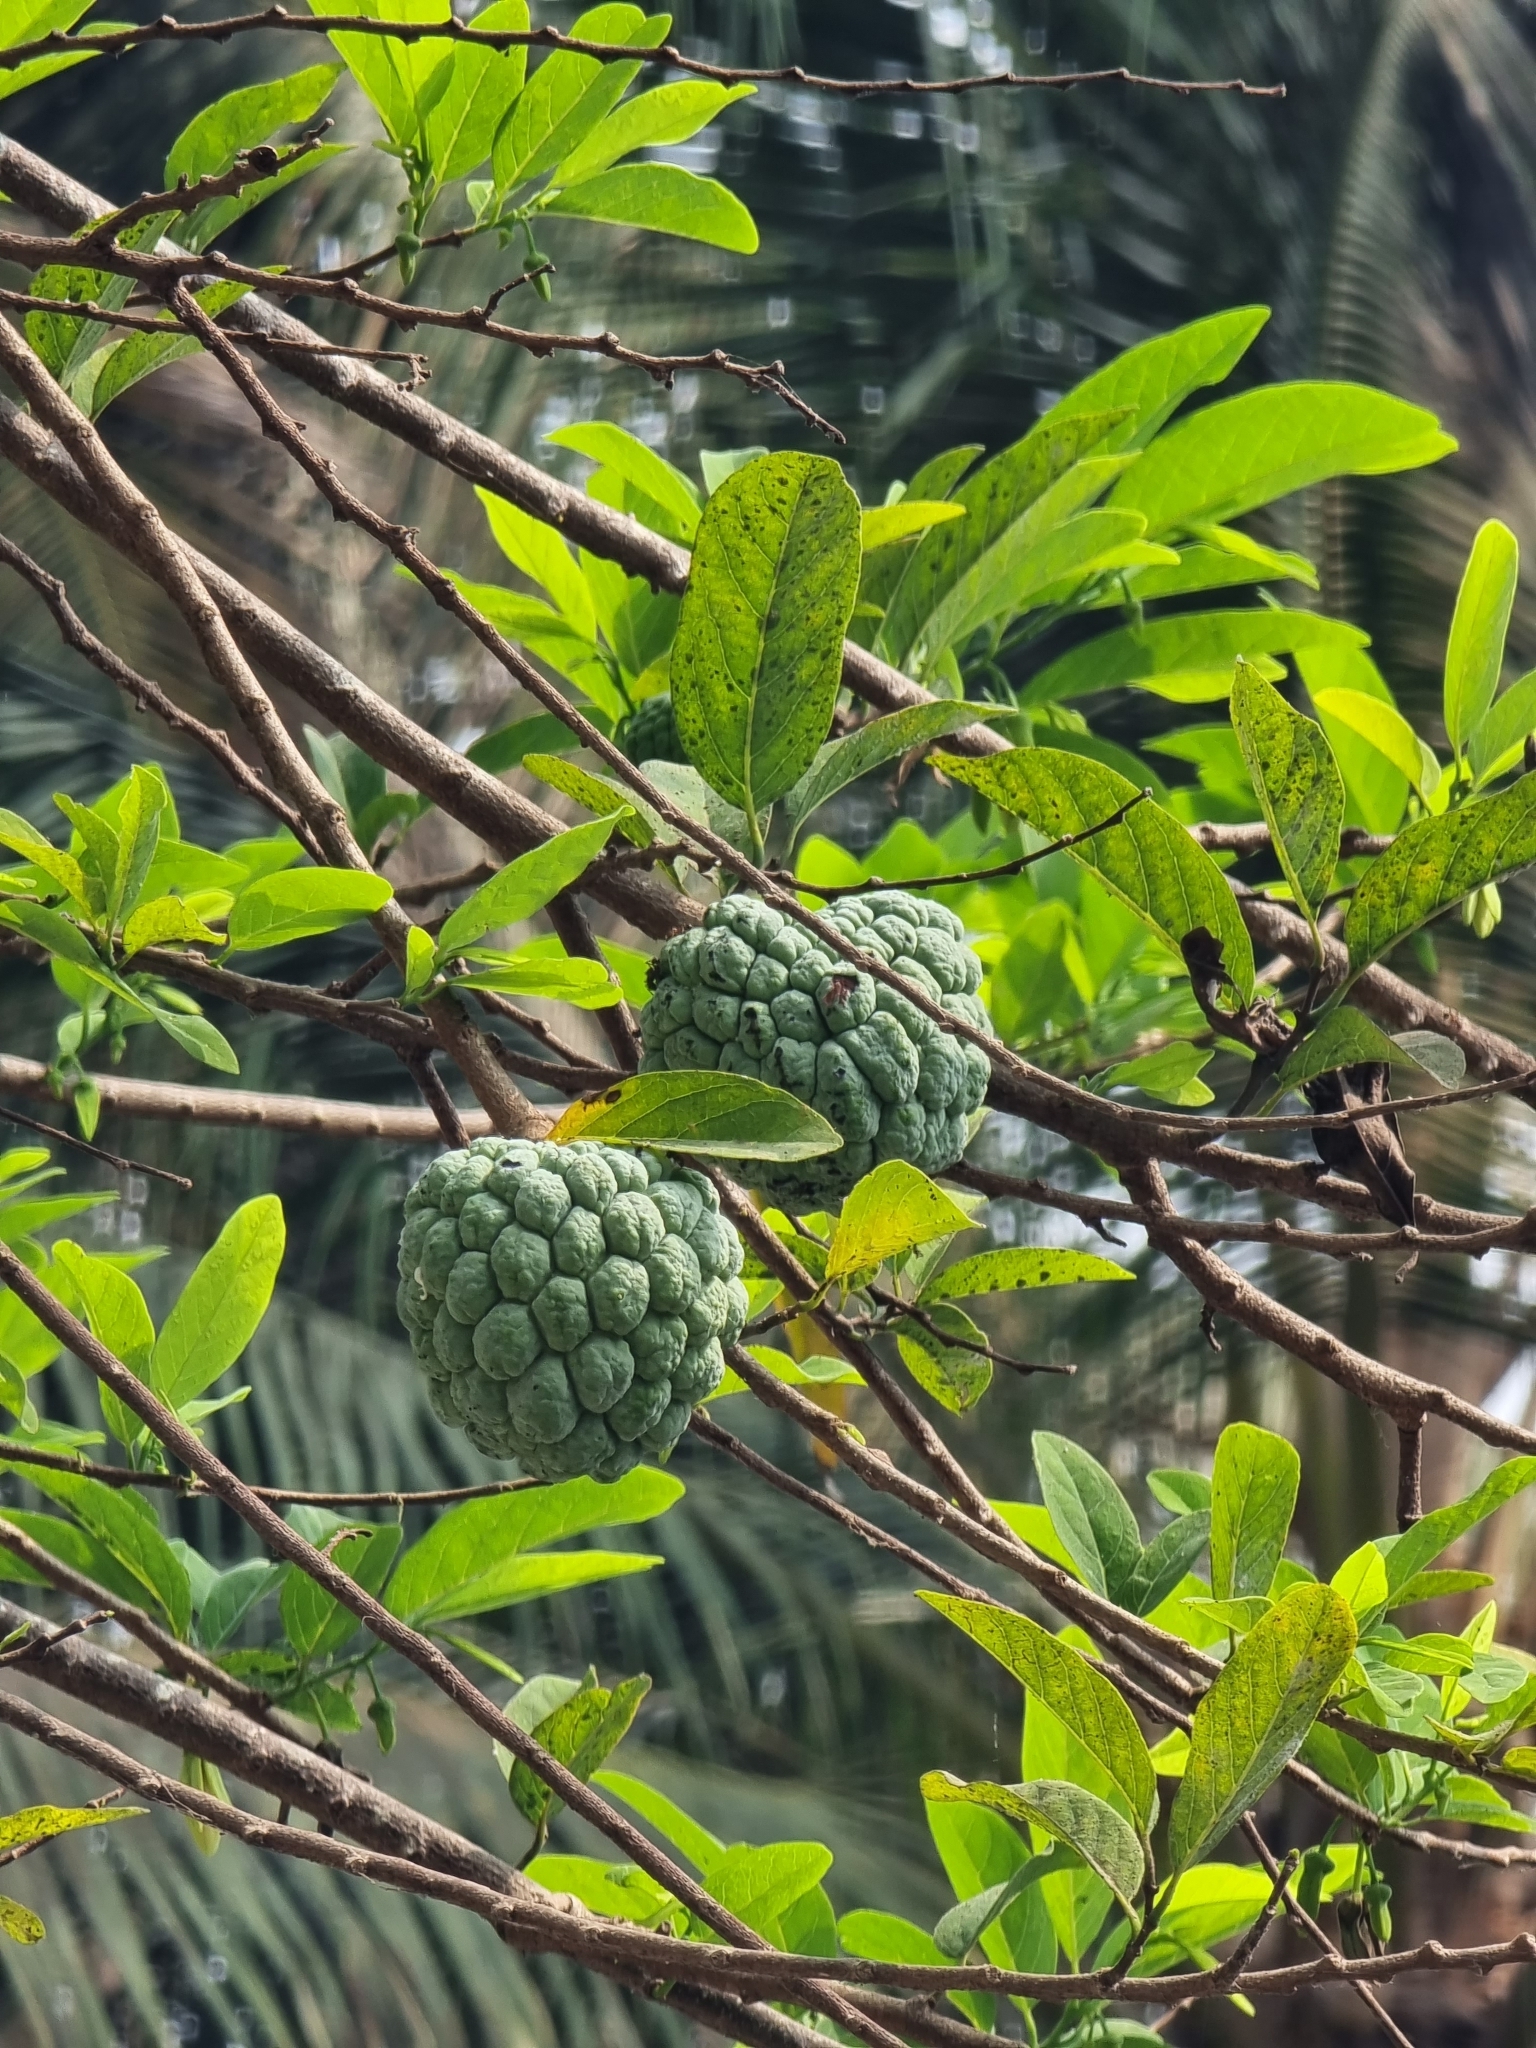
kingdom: Plantae
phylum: Tracheophyta
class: Magnoliopsida
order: Magnoliales
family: Annonaceae
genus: Annona
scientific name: Annona squamosa
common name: Custard-apple
